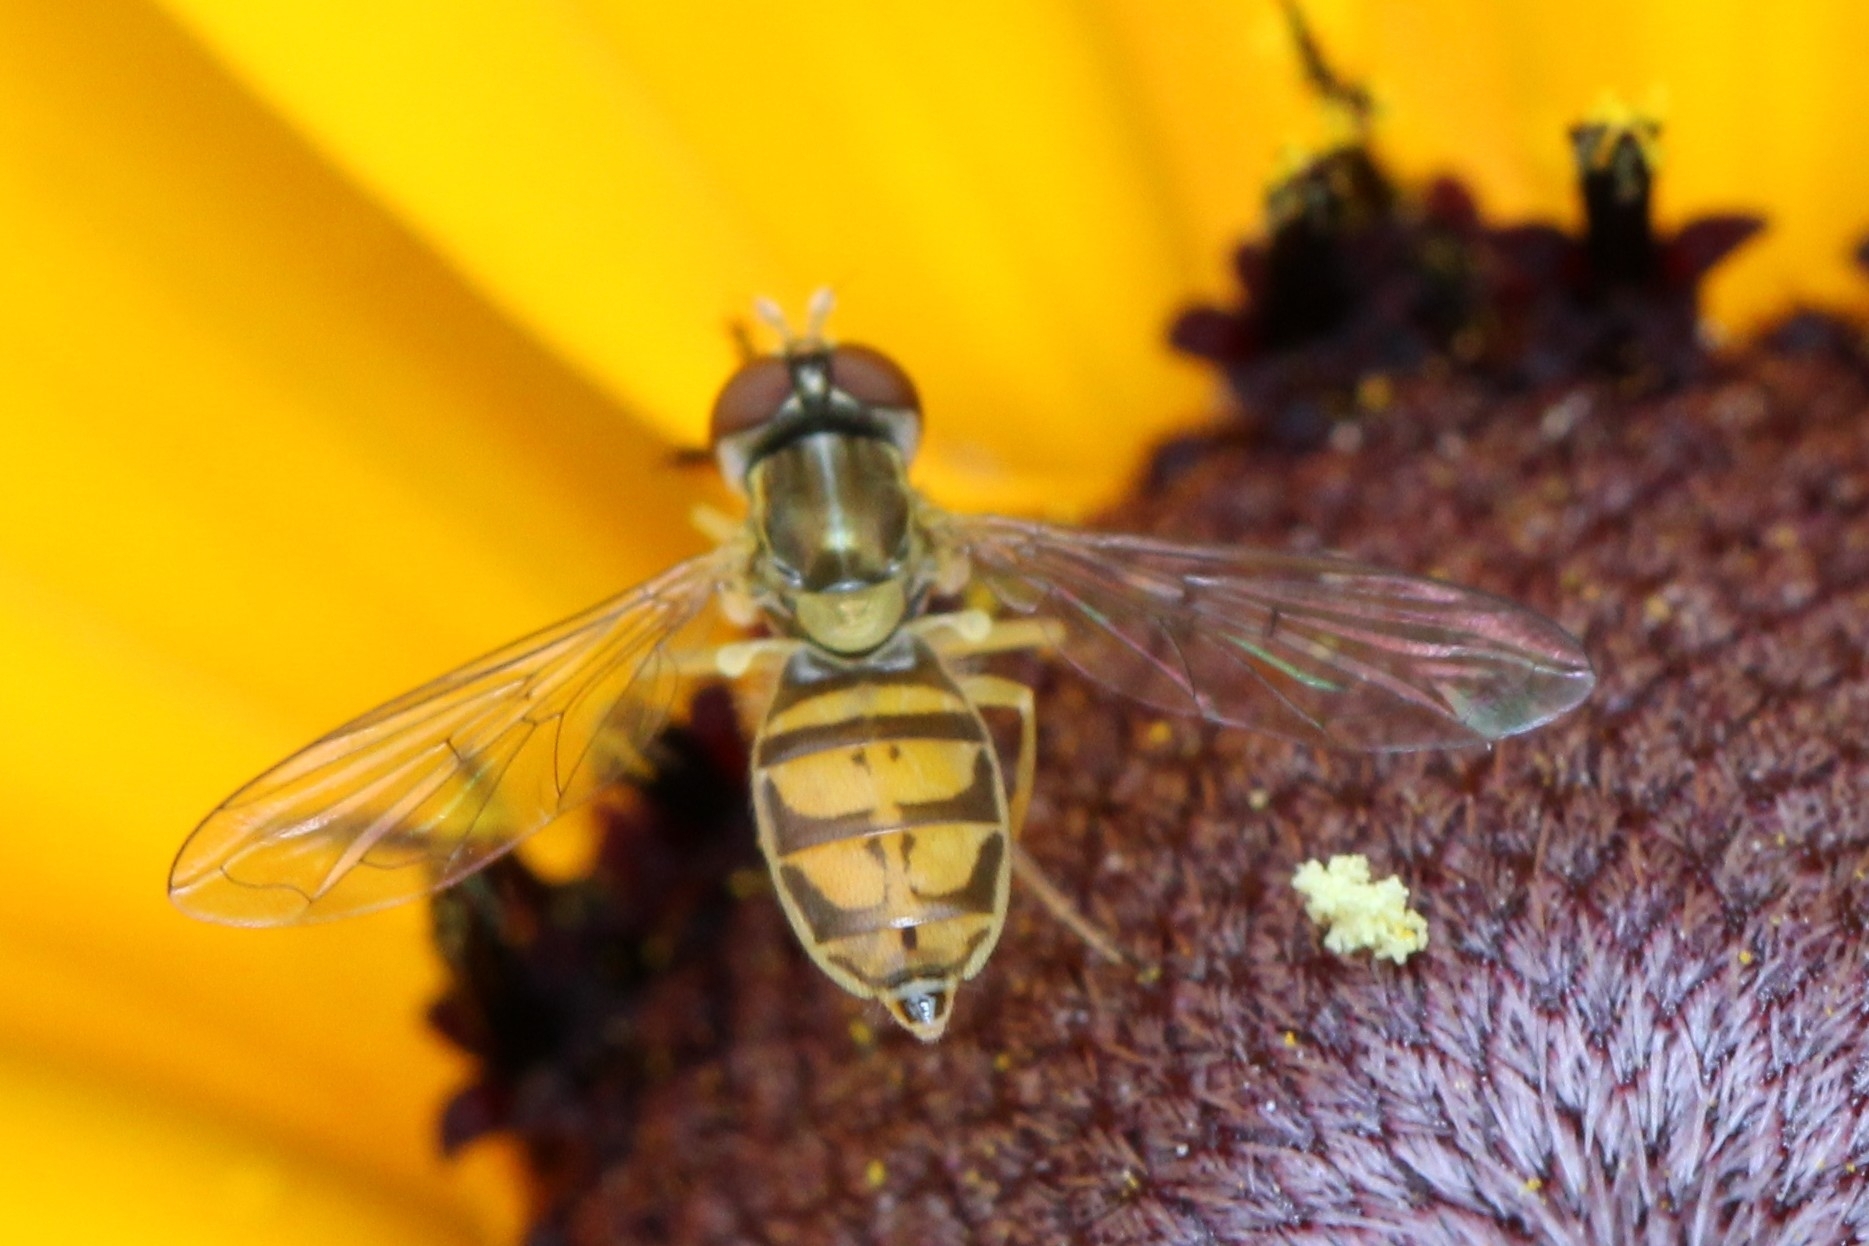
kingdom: Animalia
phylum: Arthropoda
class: Insecta
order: Diptera
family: Syrphidae
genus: Toxomerus
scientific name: Toxomerus marginatus
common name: Syrphid fly
